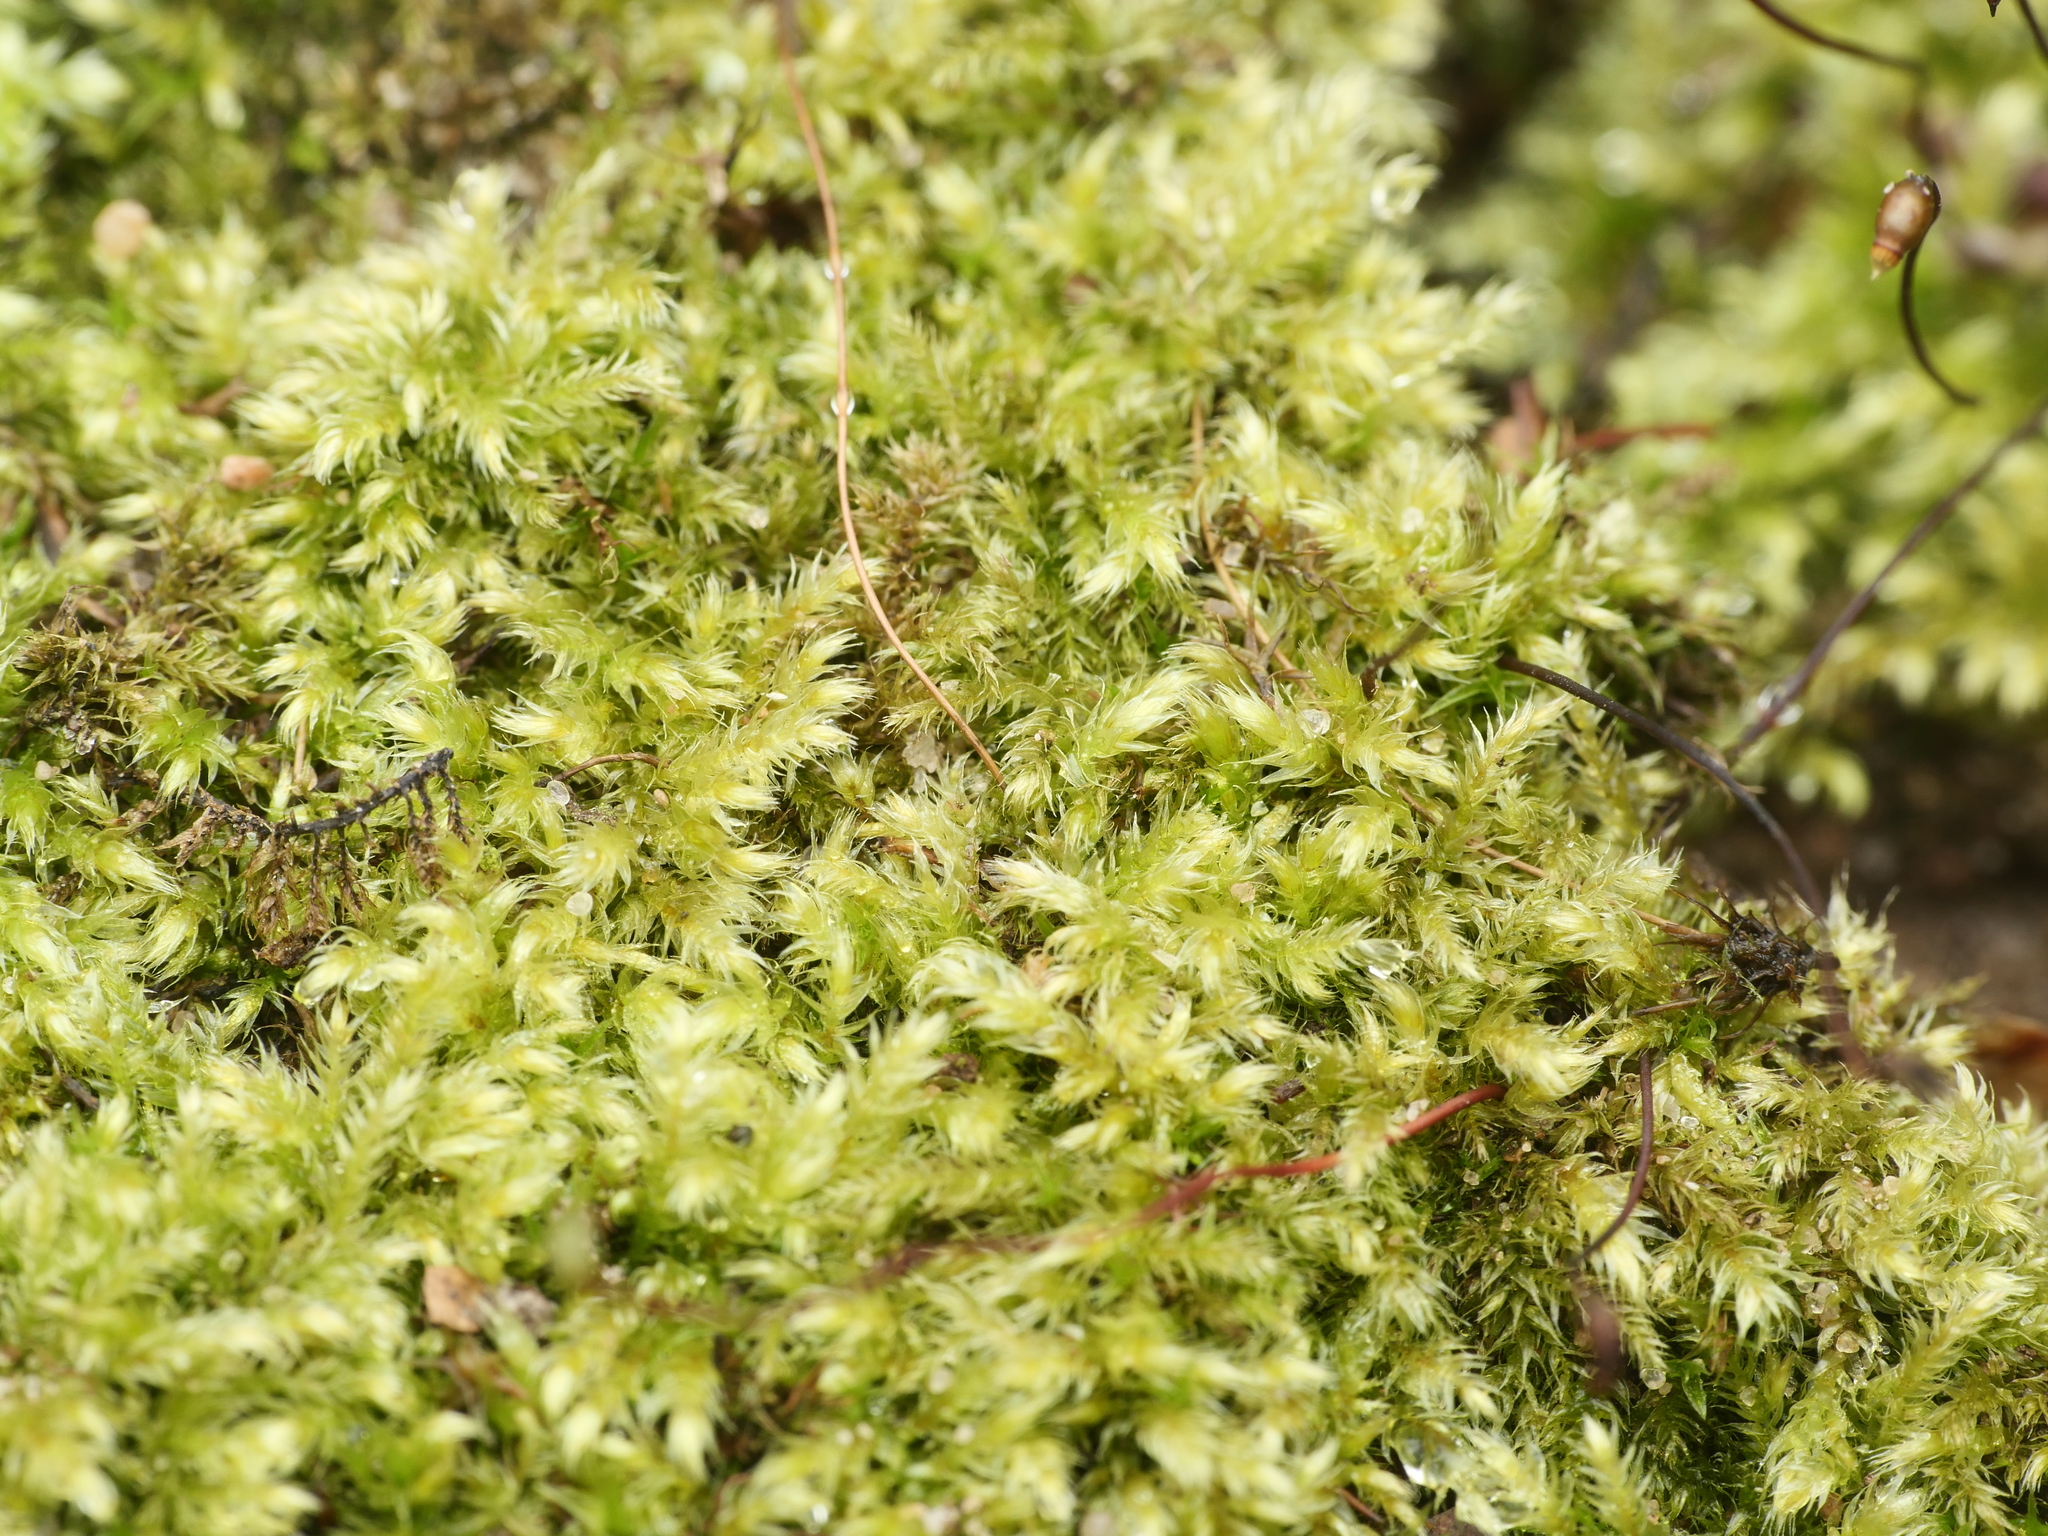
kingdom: Plantae
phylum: Bryophyta
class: Bryopsida
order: Hypnales
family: Brachytheciaceae
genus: Brachythecium
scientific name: Brachythecium rutabulum
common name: Rough-stalked feather-moss
